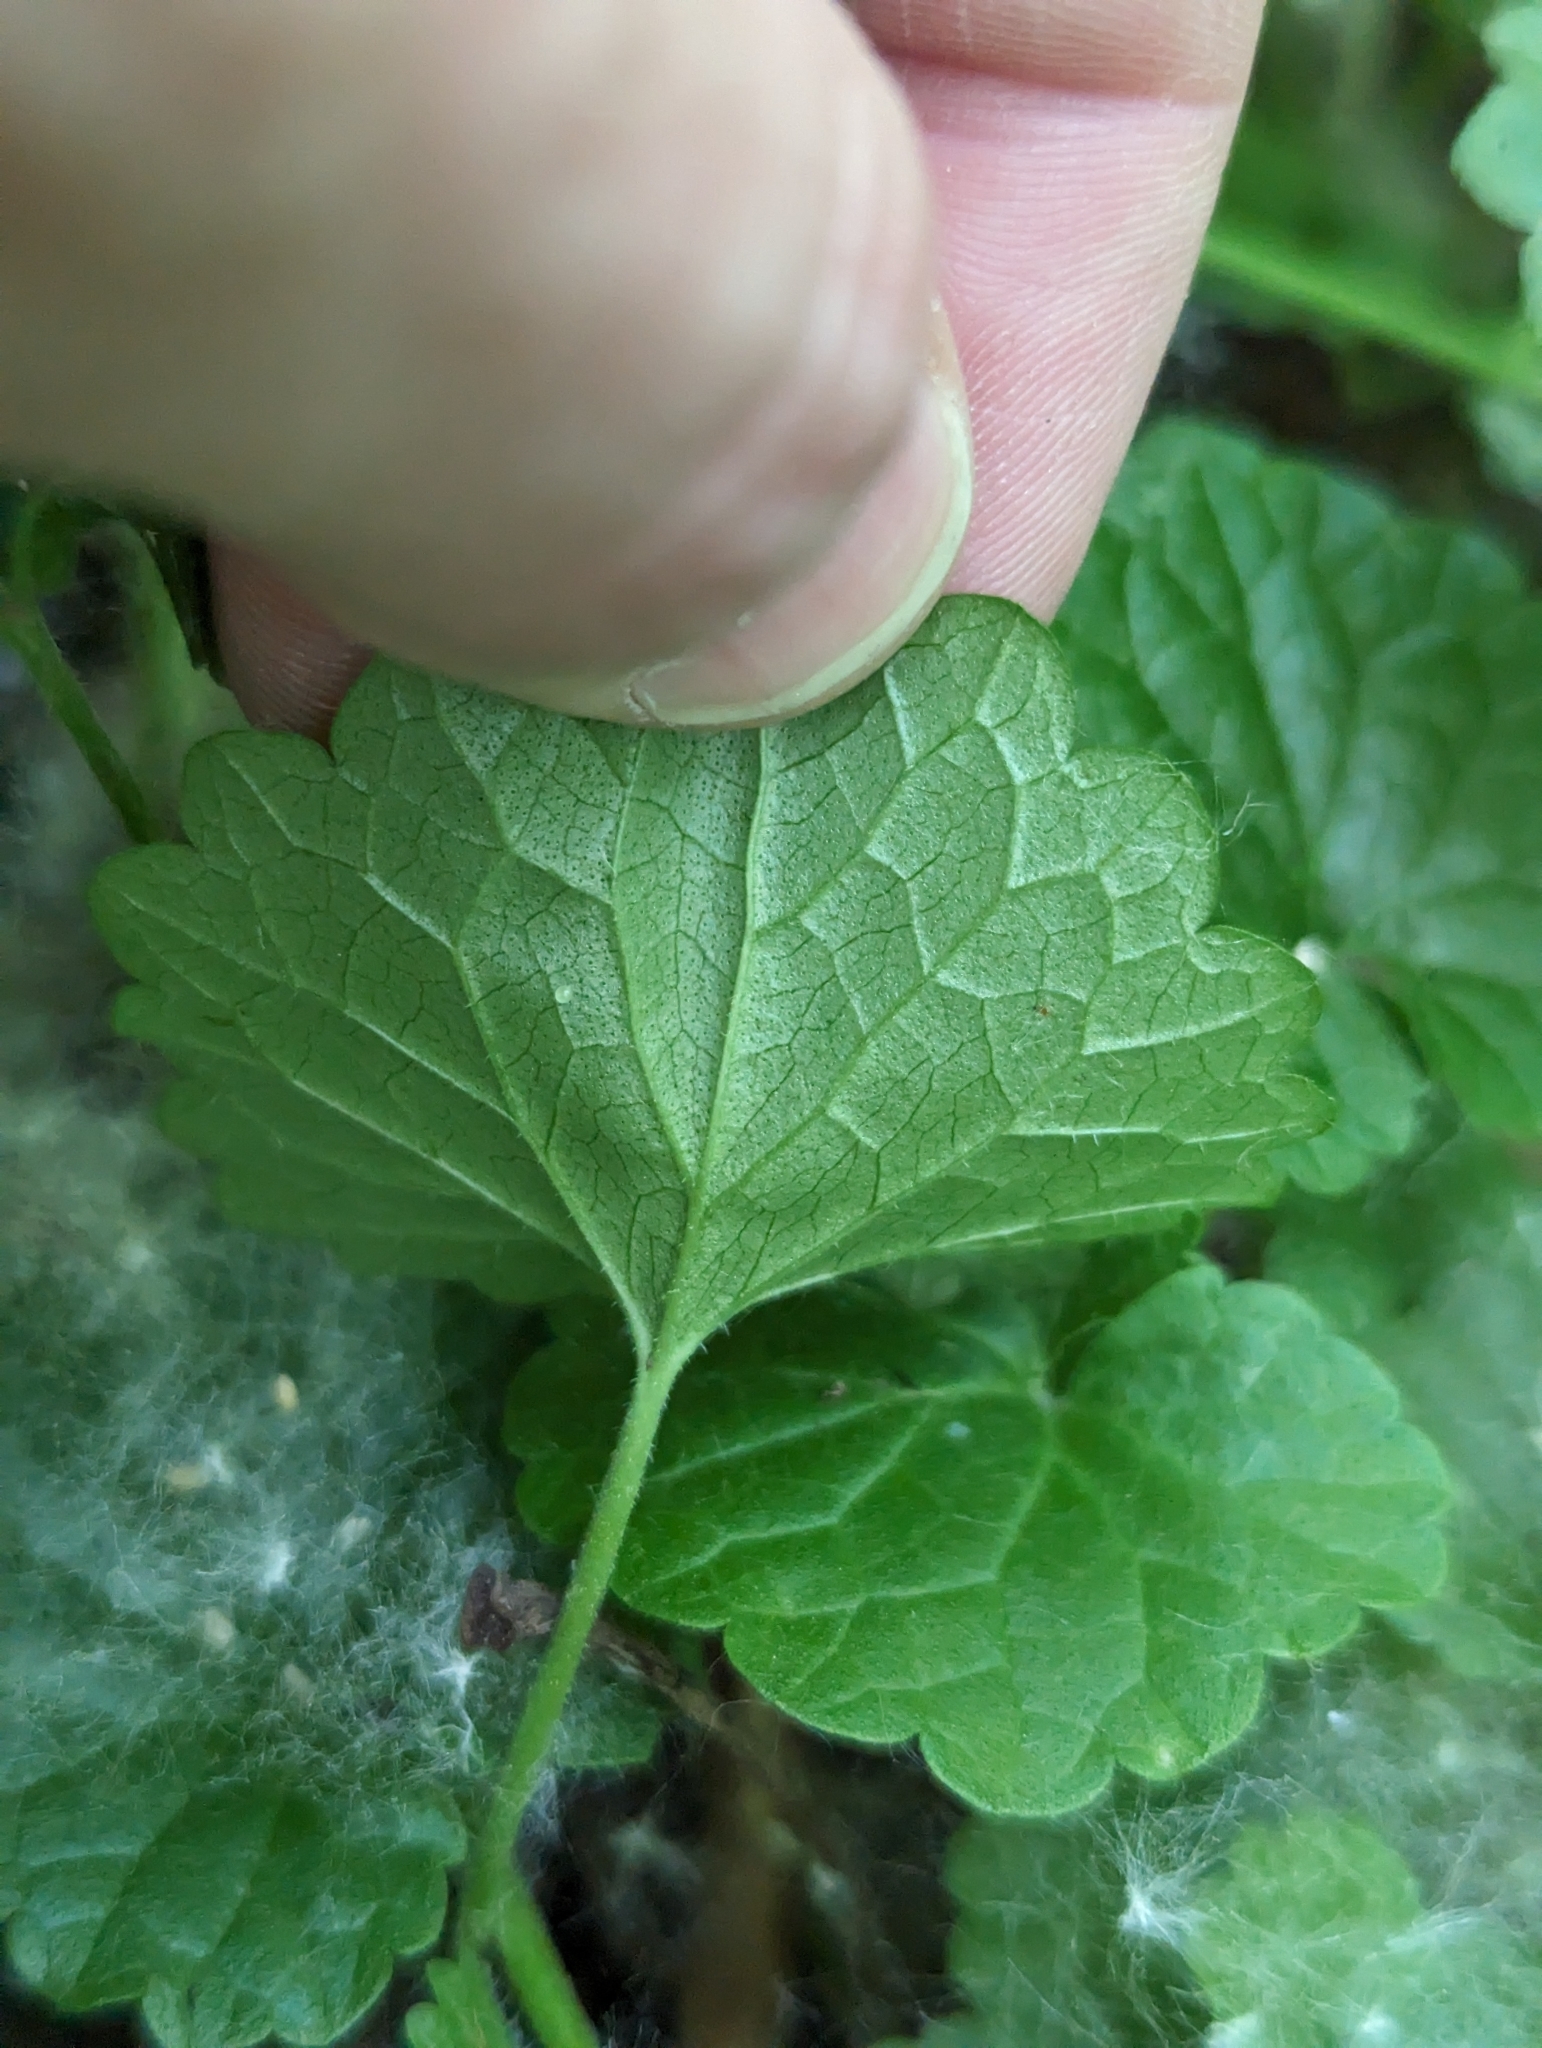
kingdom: Plantae
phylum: Tracheophyta
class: Magnoliopsida
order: Lamiales
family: Lamiaceae
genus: Glechoma
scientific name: Glechoma hederacea
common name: Ground ivy
